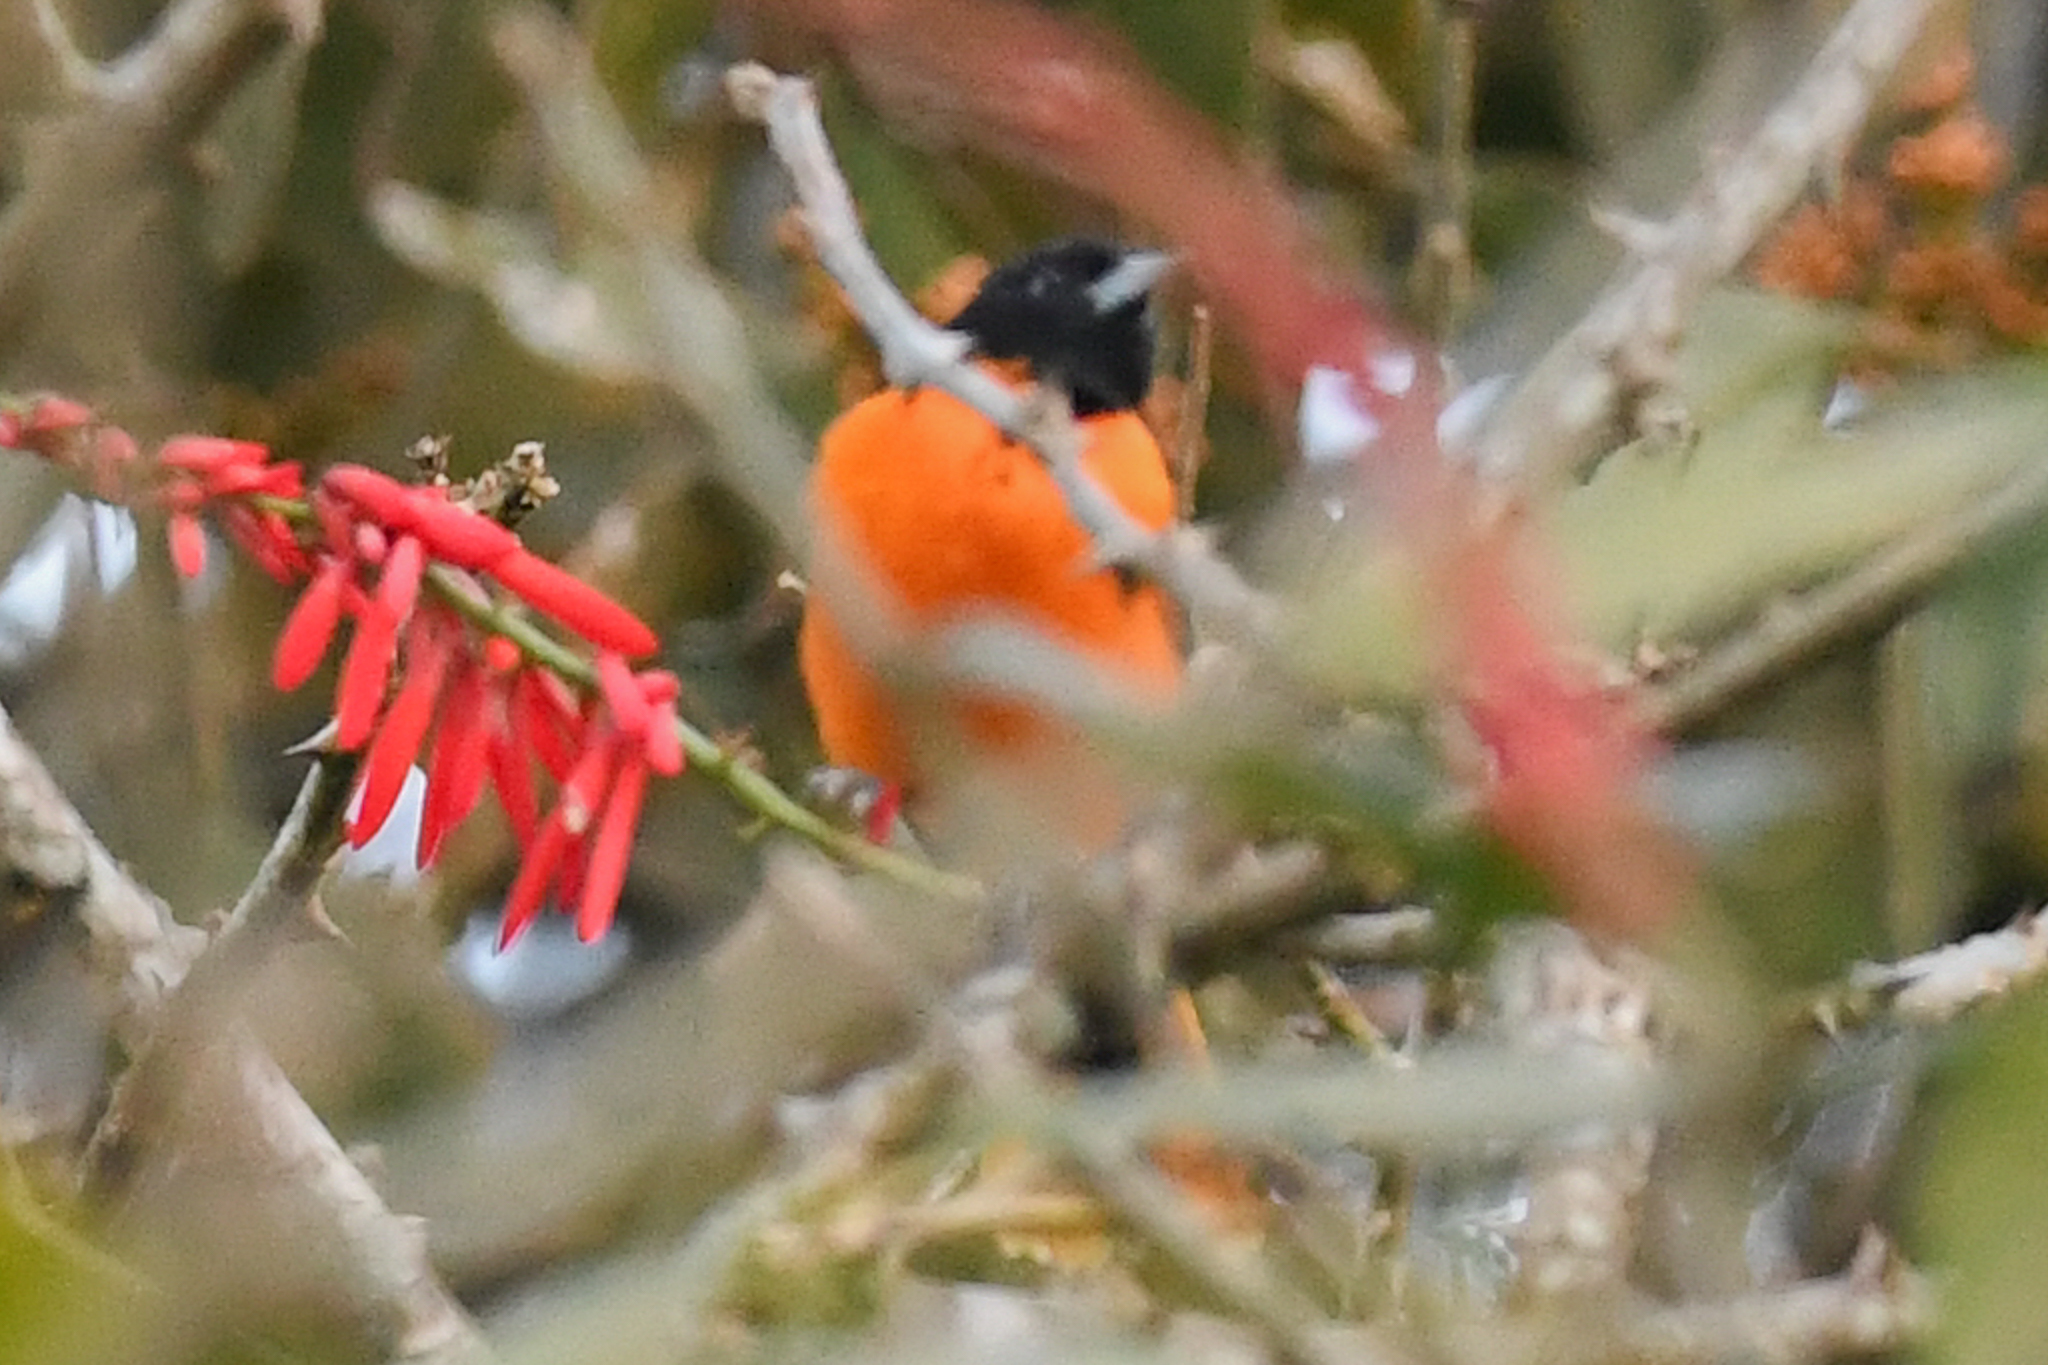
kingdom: Animalia
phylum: Chordata
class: Aves
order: Passeriformes
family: Icteridae
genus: Icterus
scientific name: Icterus galbula
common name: Baltimore oriole
